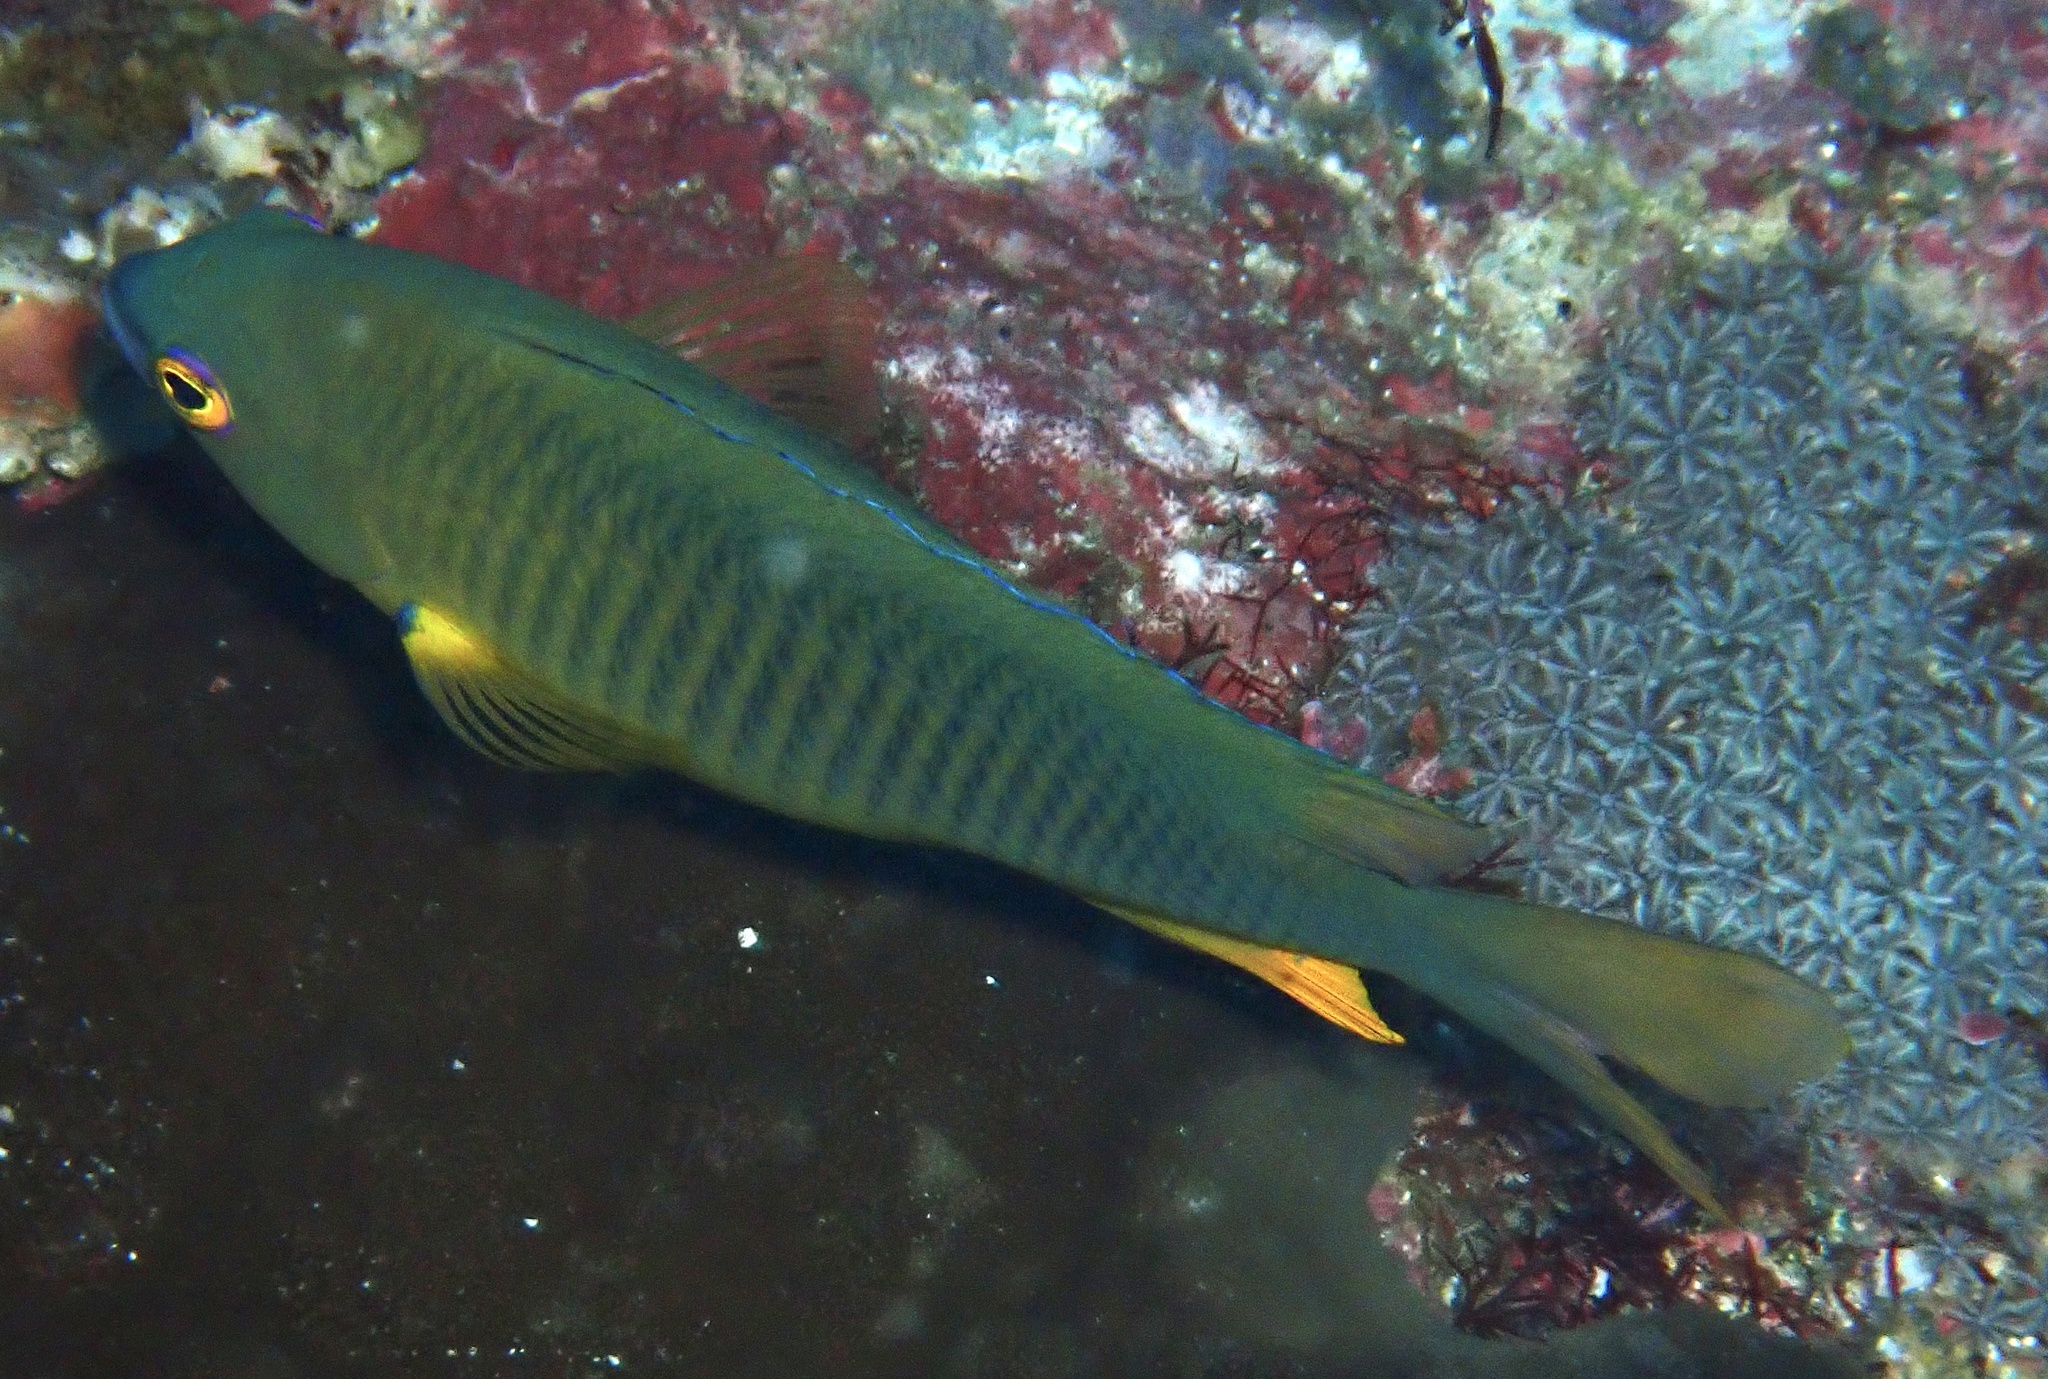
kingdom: Animalia
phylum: Chordata
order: Perciformes
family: Pomacentridae
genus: Stegastes
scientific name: Stegastes gascoynei
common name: Coral sea gregory
